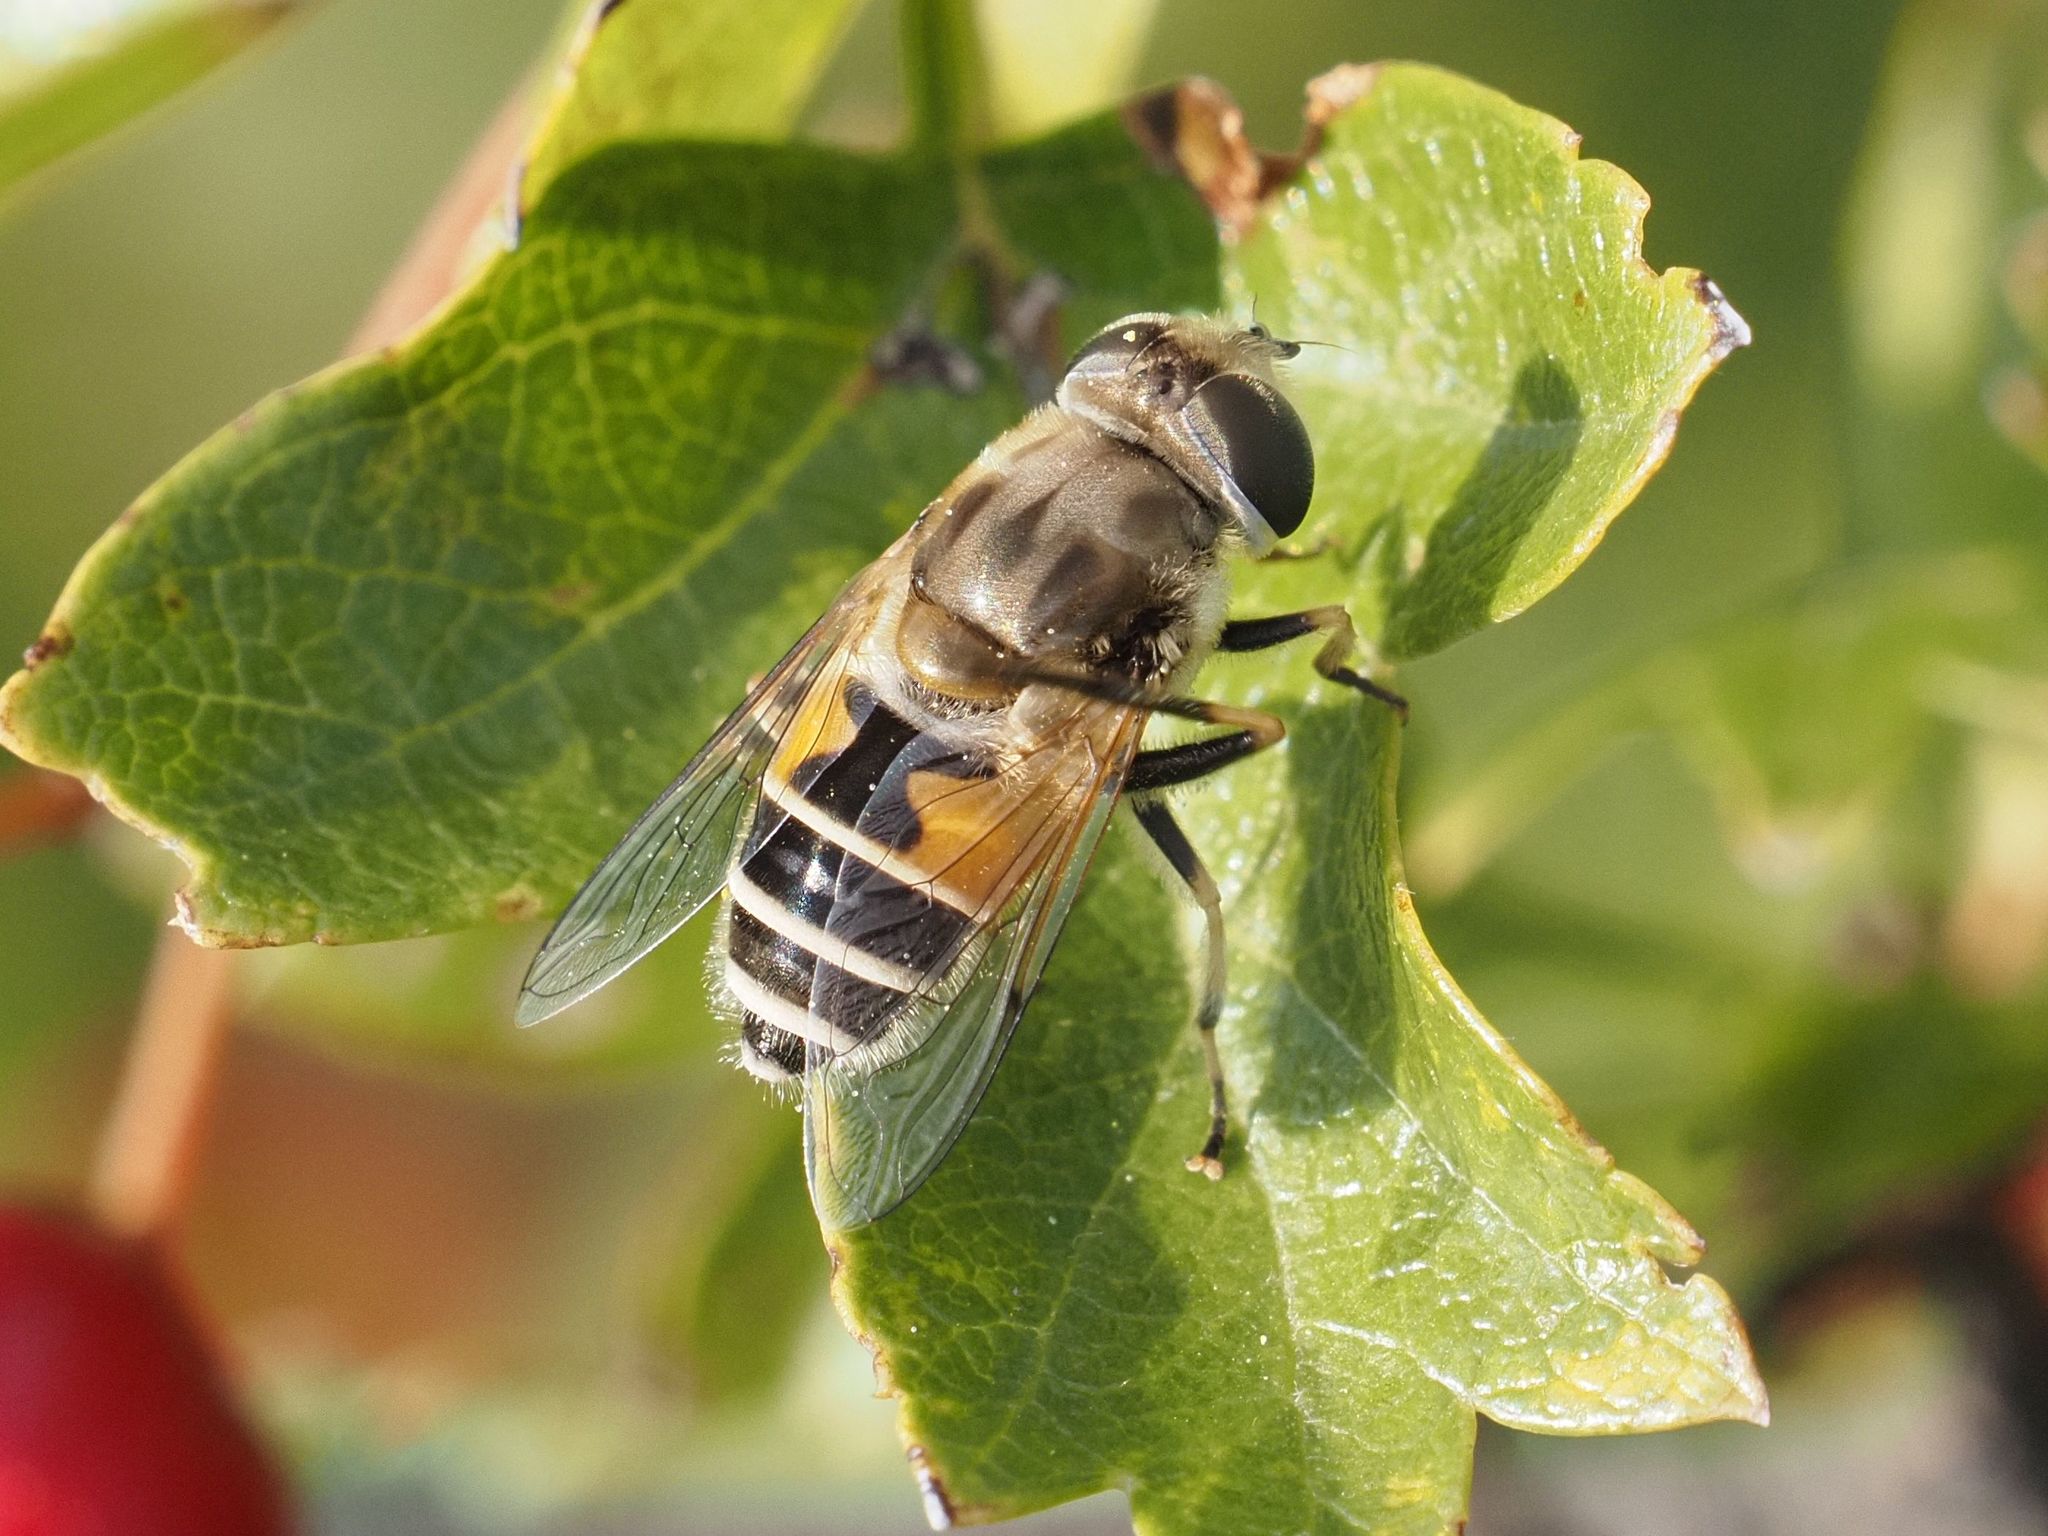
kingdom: Animalia
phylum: Arthropoda
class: Insecta
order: Diptera
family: Syrphidae
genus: Eristalis
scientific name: Eristalis arbustorum
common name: Hover fly
